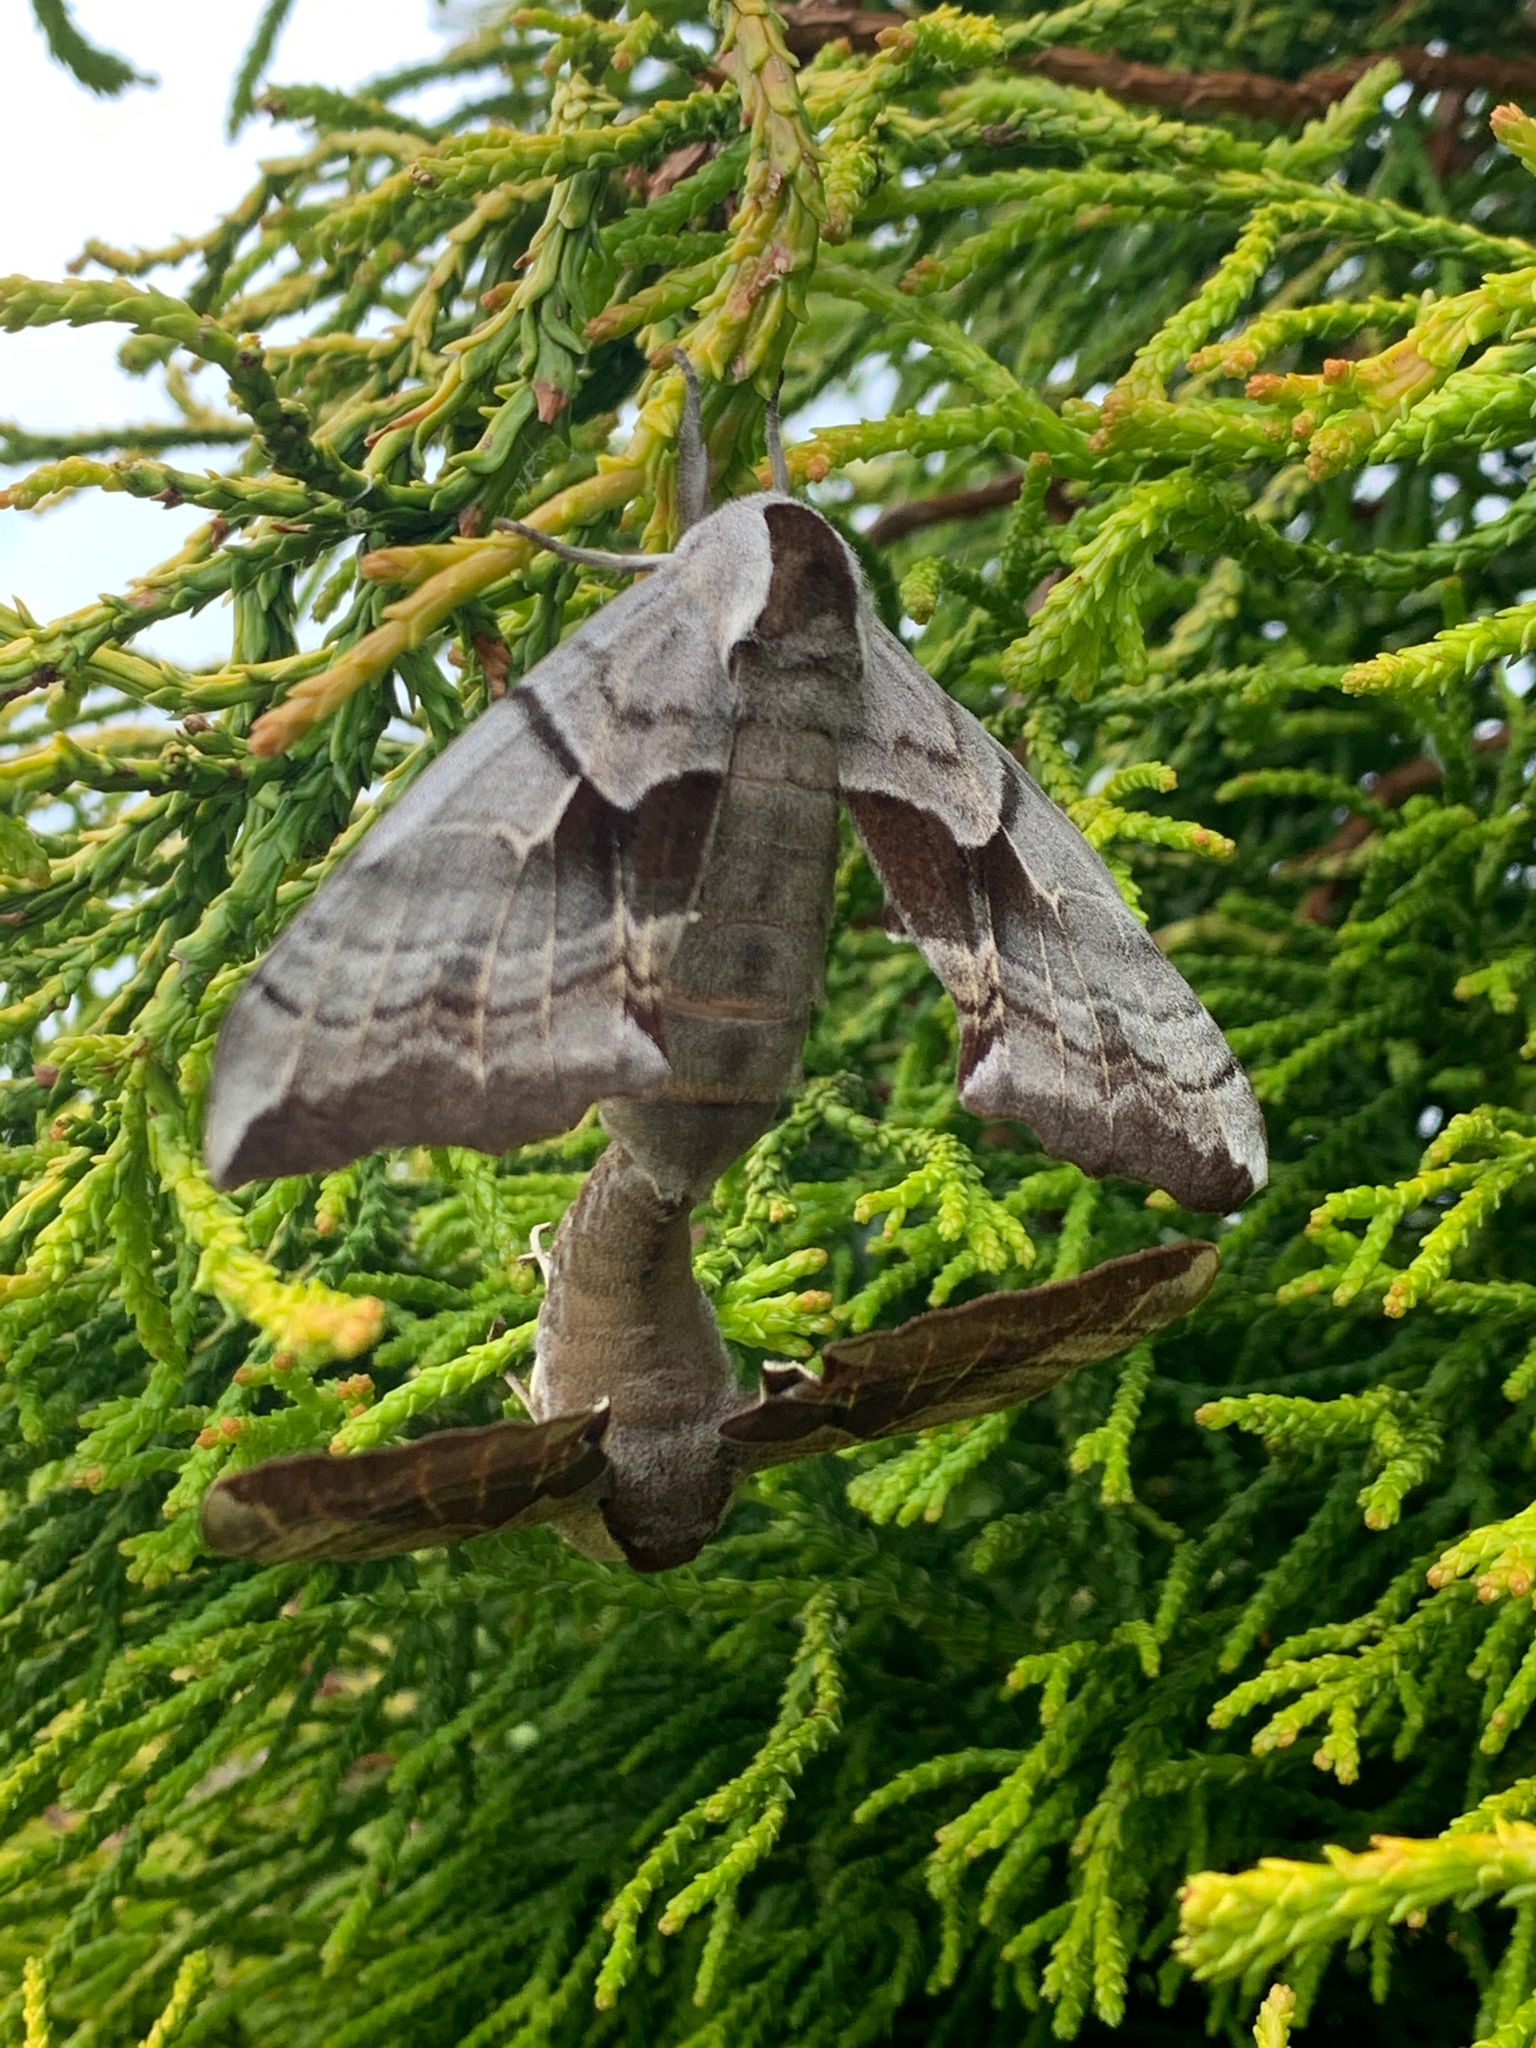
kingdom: Animalia
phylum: Arthropoda
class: Insecta
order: Lepidoptera
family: Sphingidae
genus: Smerinthus
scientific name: Smerinthus cerisyi
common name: Cerisy's sphinx moth
